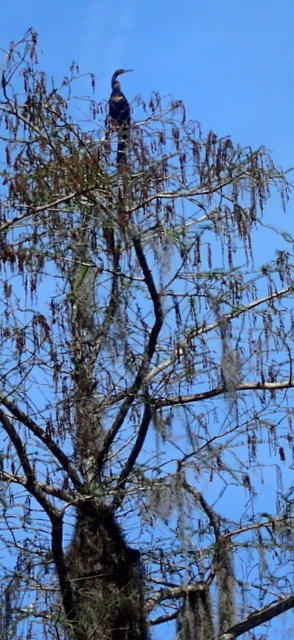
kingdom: Animalia
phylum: Chordata
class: Aves
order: Suliformes
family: Anhingidae
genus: Anhinga
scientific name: Anhinga anhinga
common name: Anhinga
